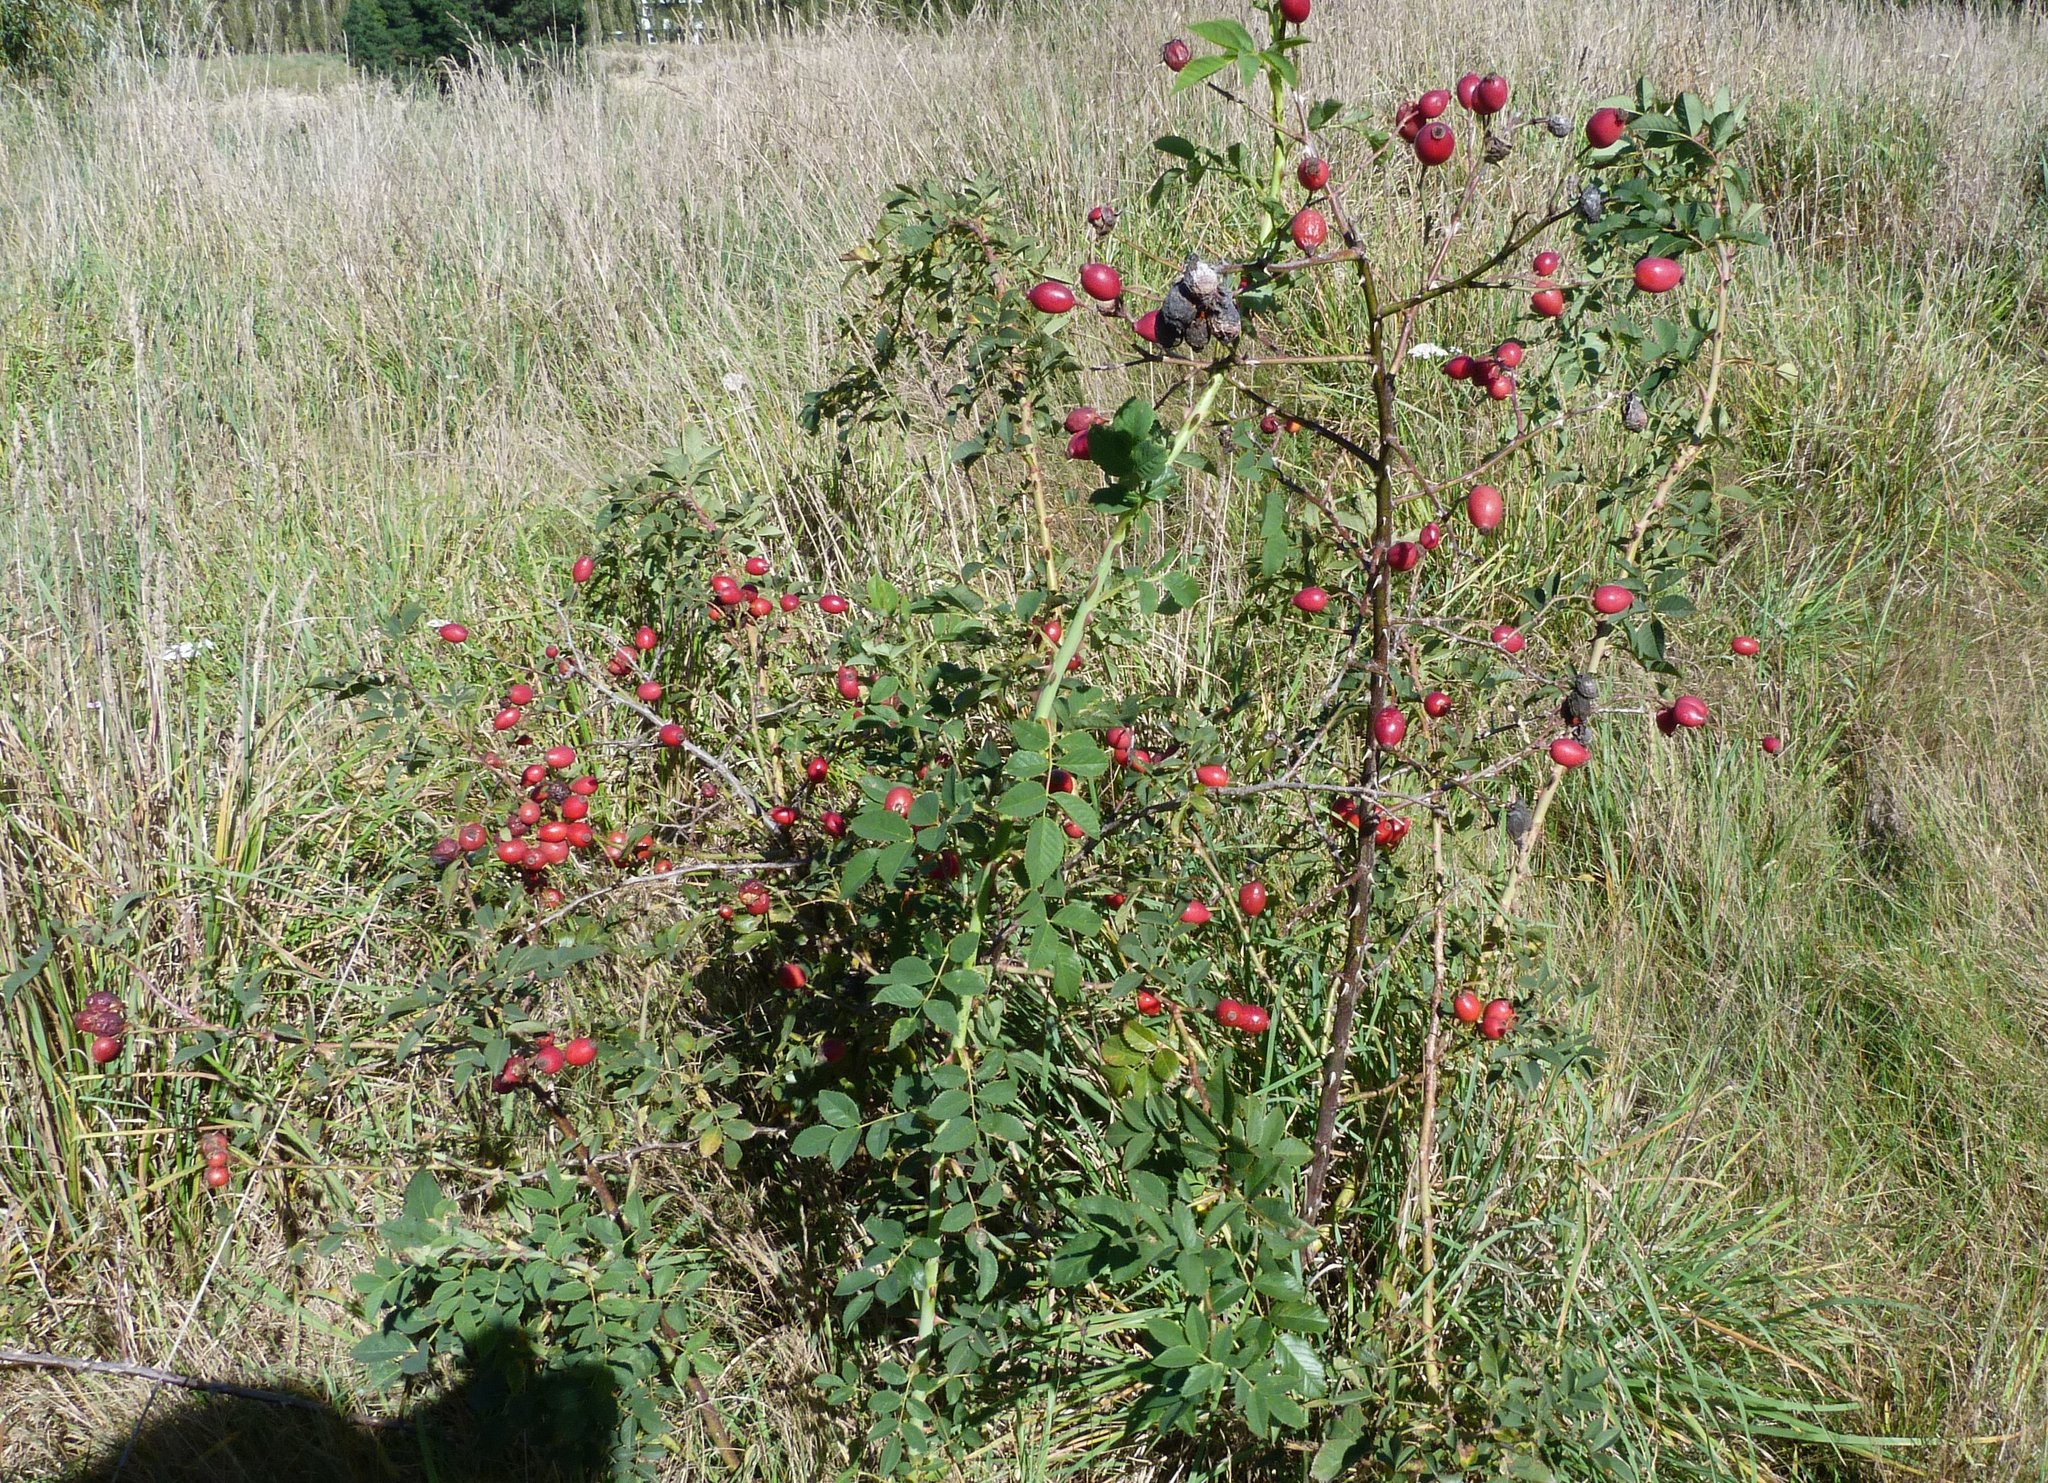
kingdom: Plantae
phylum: Tracheophyta
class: Magnoliopsida
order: Rosales
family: Rosaceae
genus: Rosa
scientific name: Rosa rubiginosa
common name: Sweet-briar
